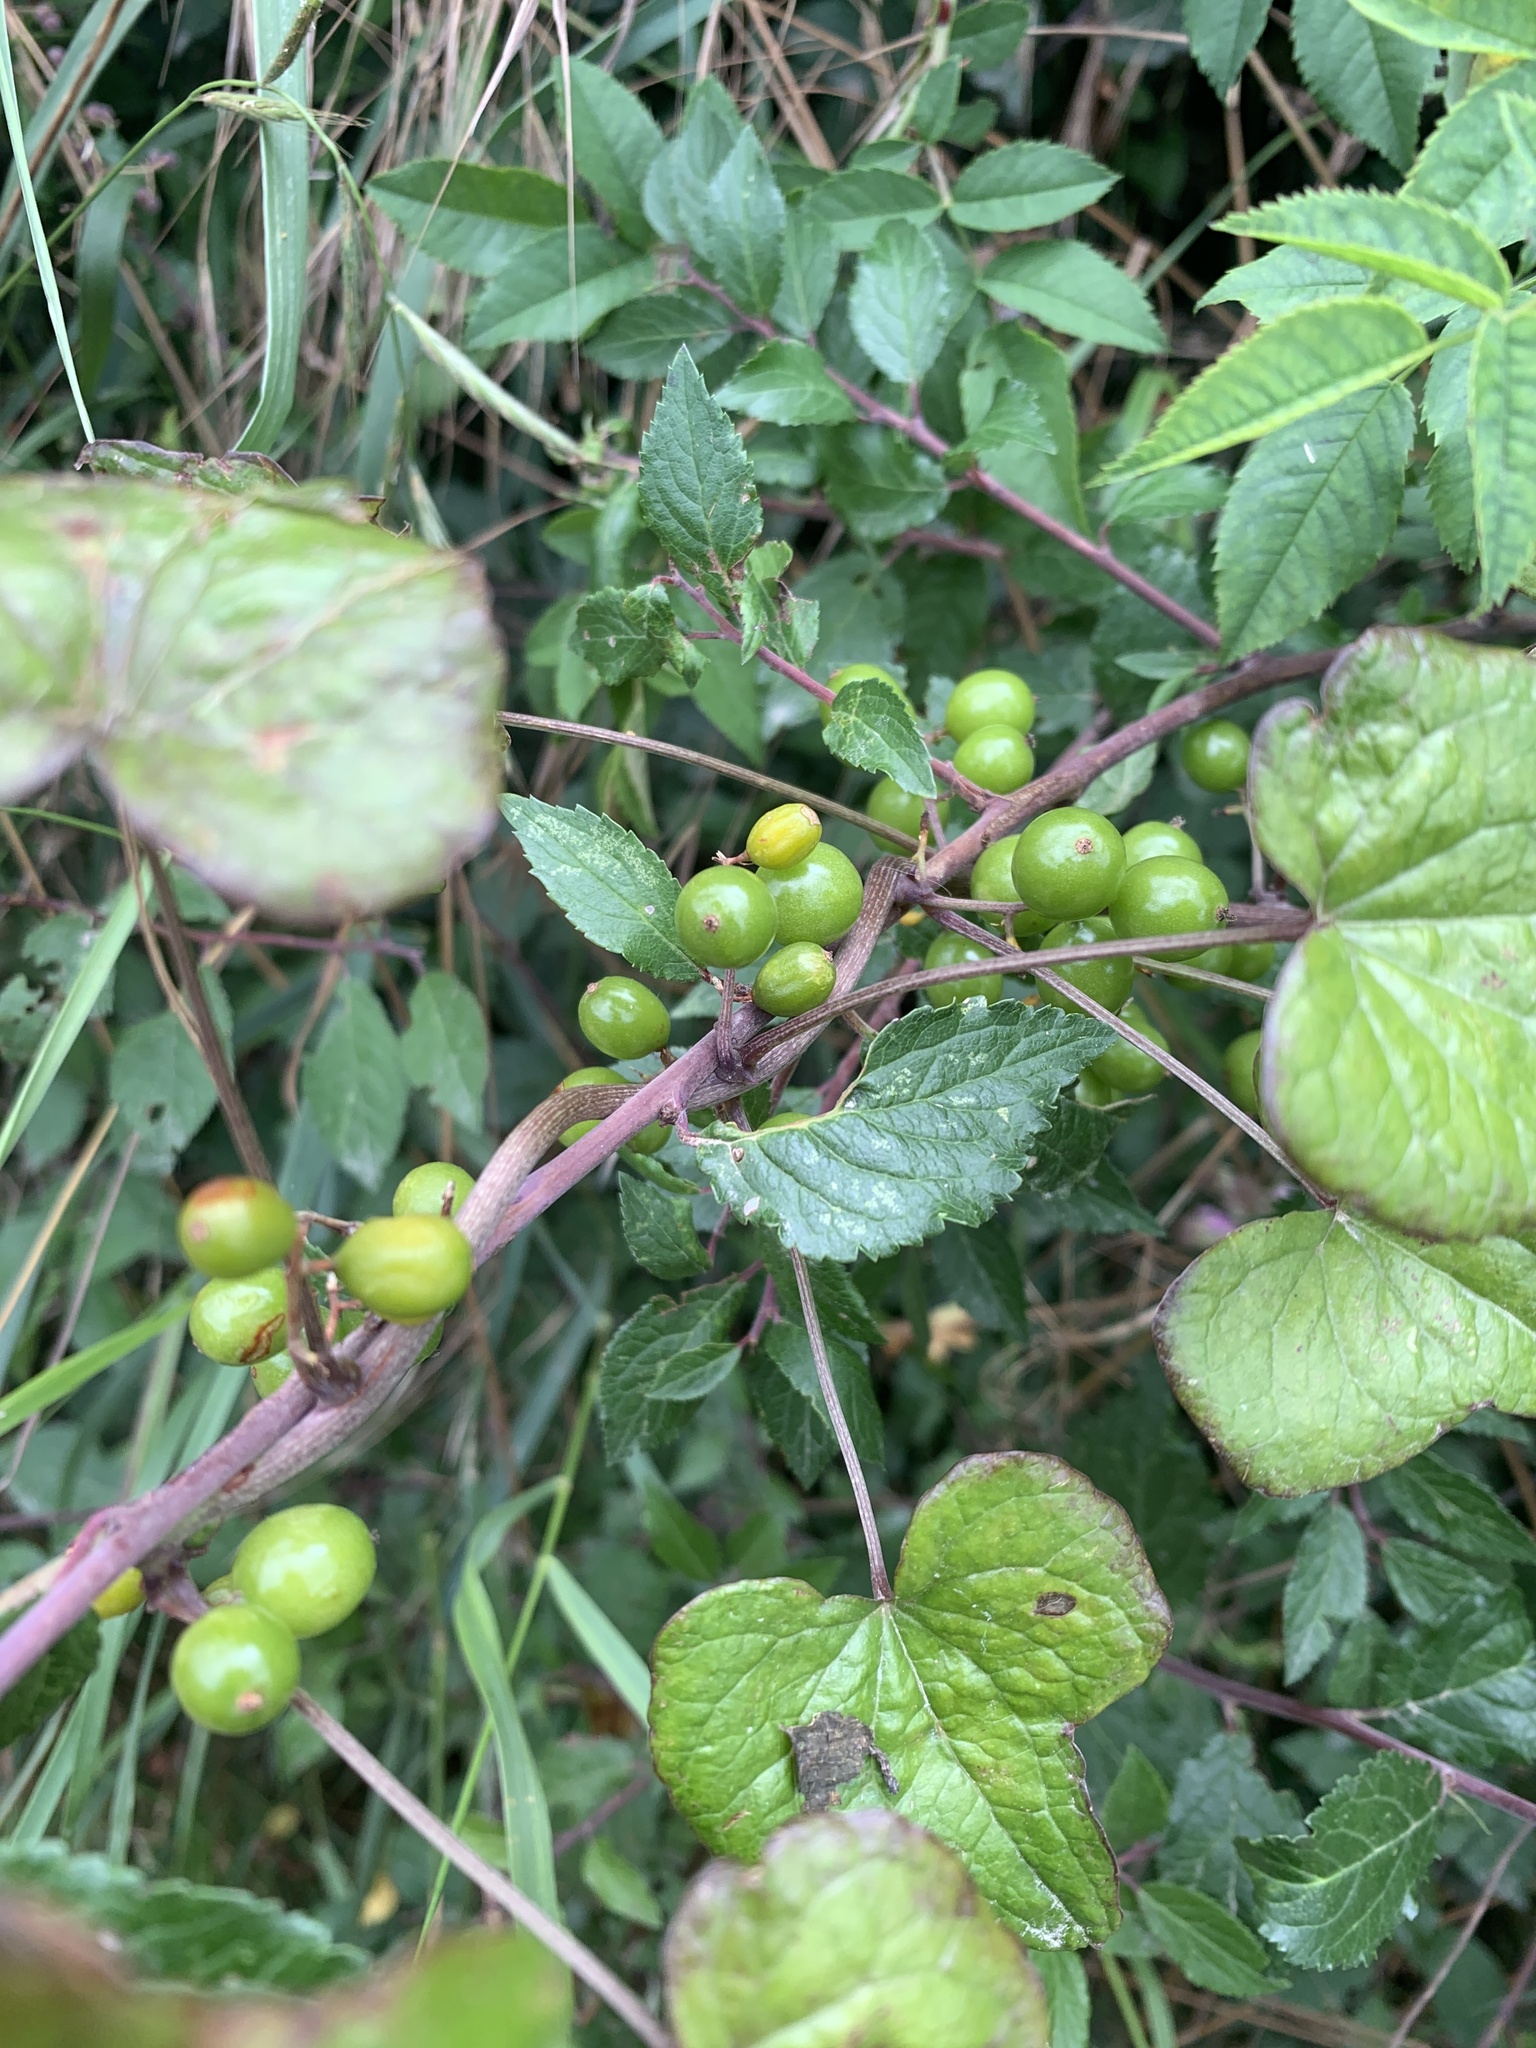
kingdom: Plantae
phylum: Tracheophyta
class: Magnoliopsida
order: Rosales
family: Rosaceae
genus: Prunus
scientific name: Prunus spinosa
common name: Blackthorn
